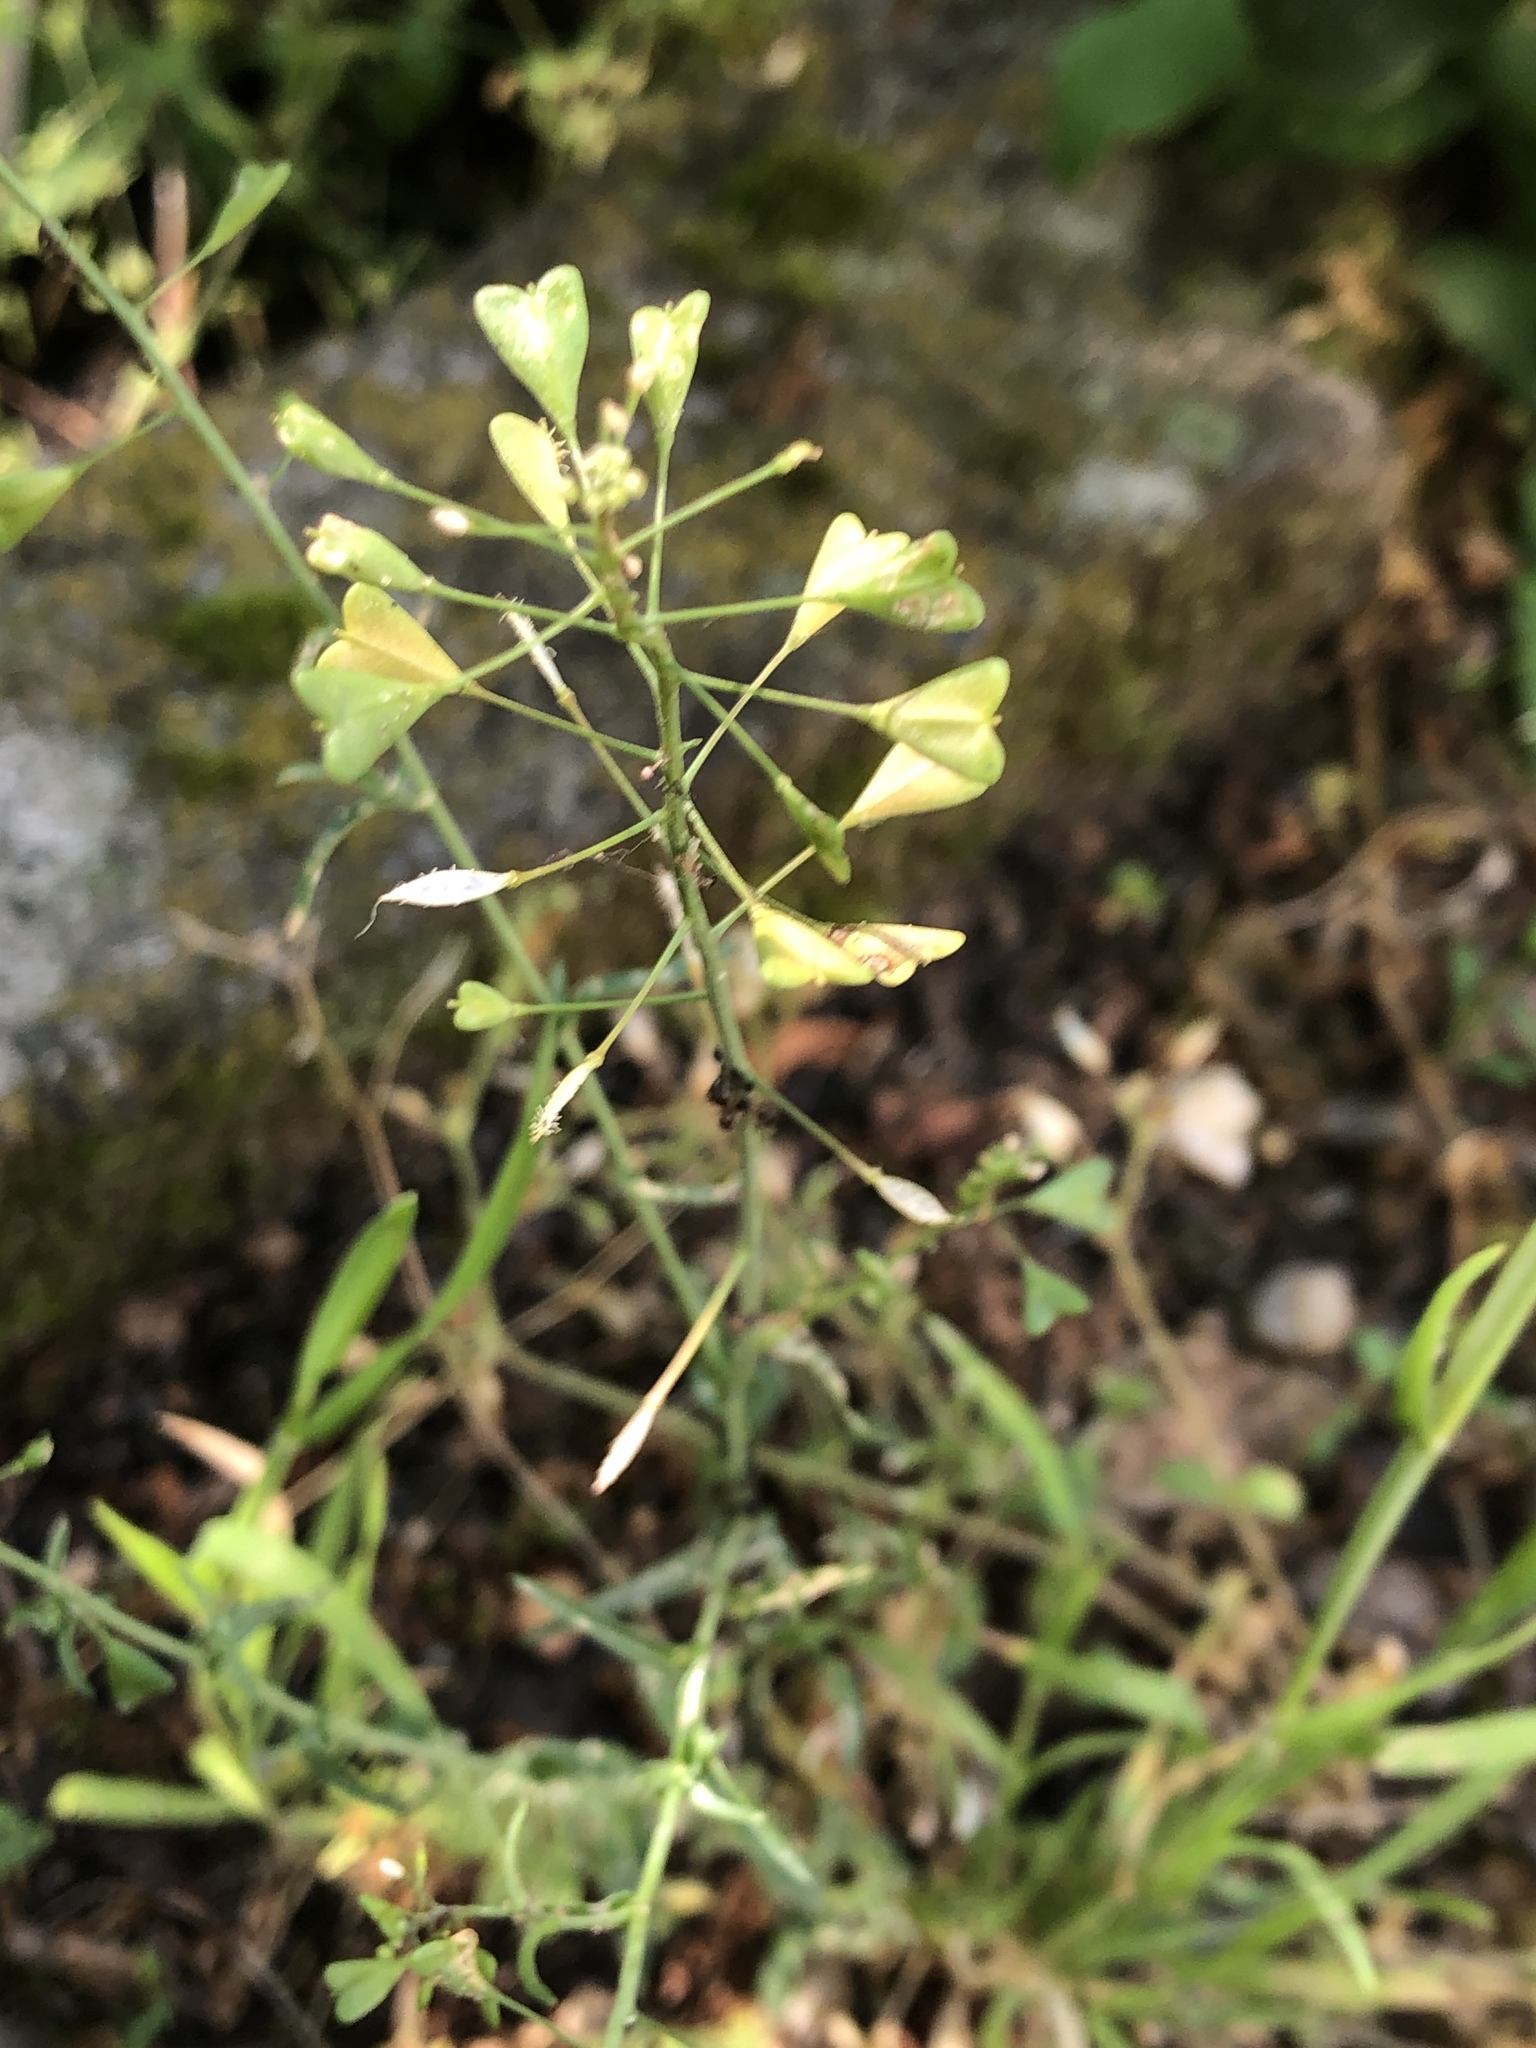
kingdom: Plantae
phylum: Tracheophyta
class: Magnoliopsida
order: Brassicales
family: Brassicaceae
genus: Capsella
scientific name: Capsella bursa-pastoris
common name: Shepherd's purse
